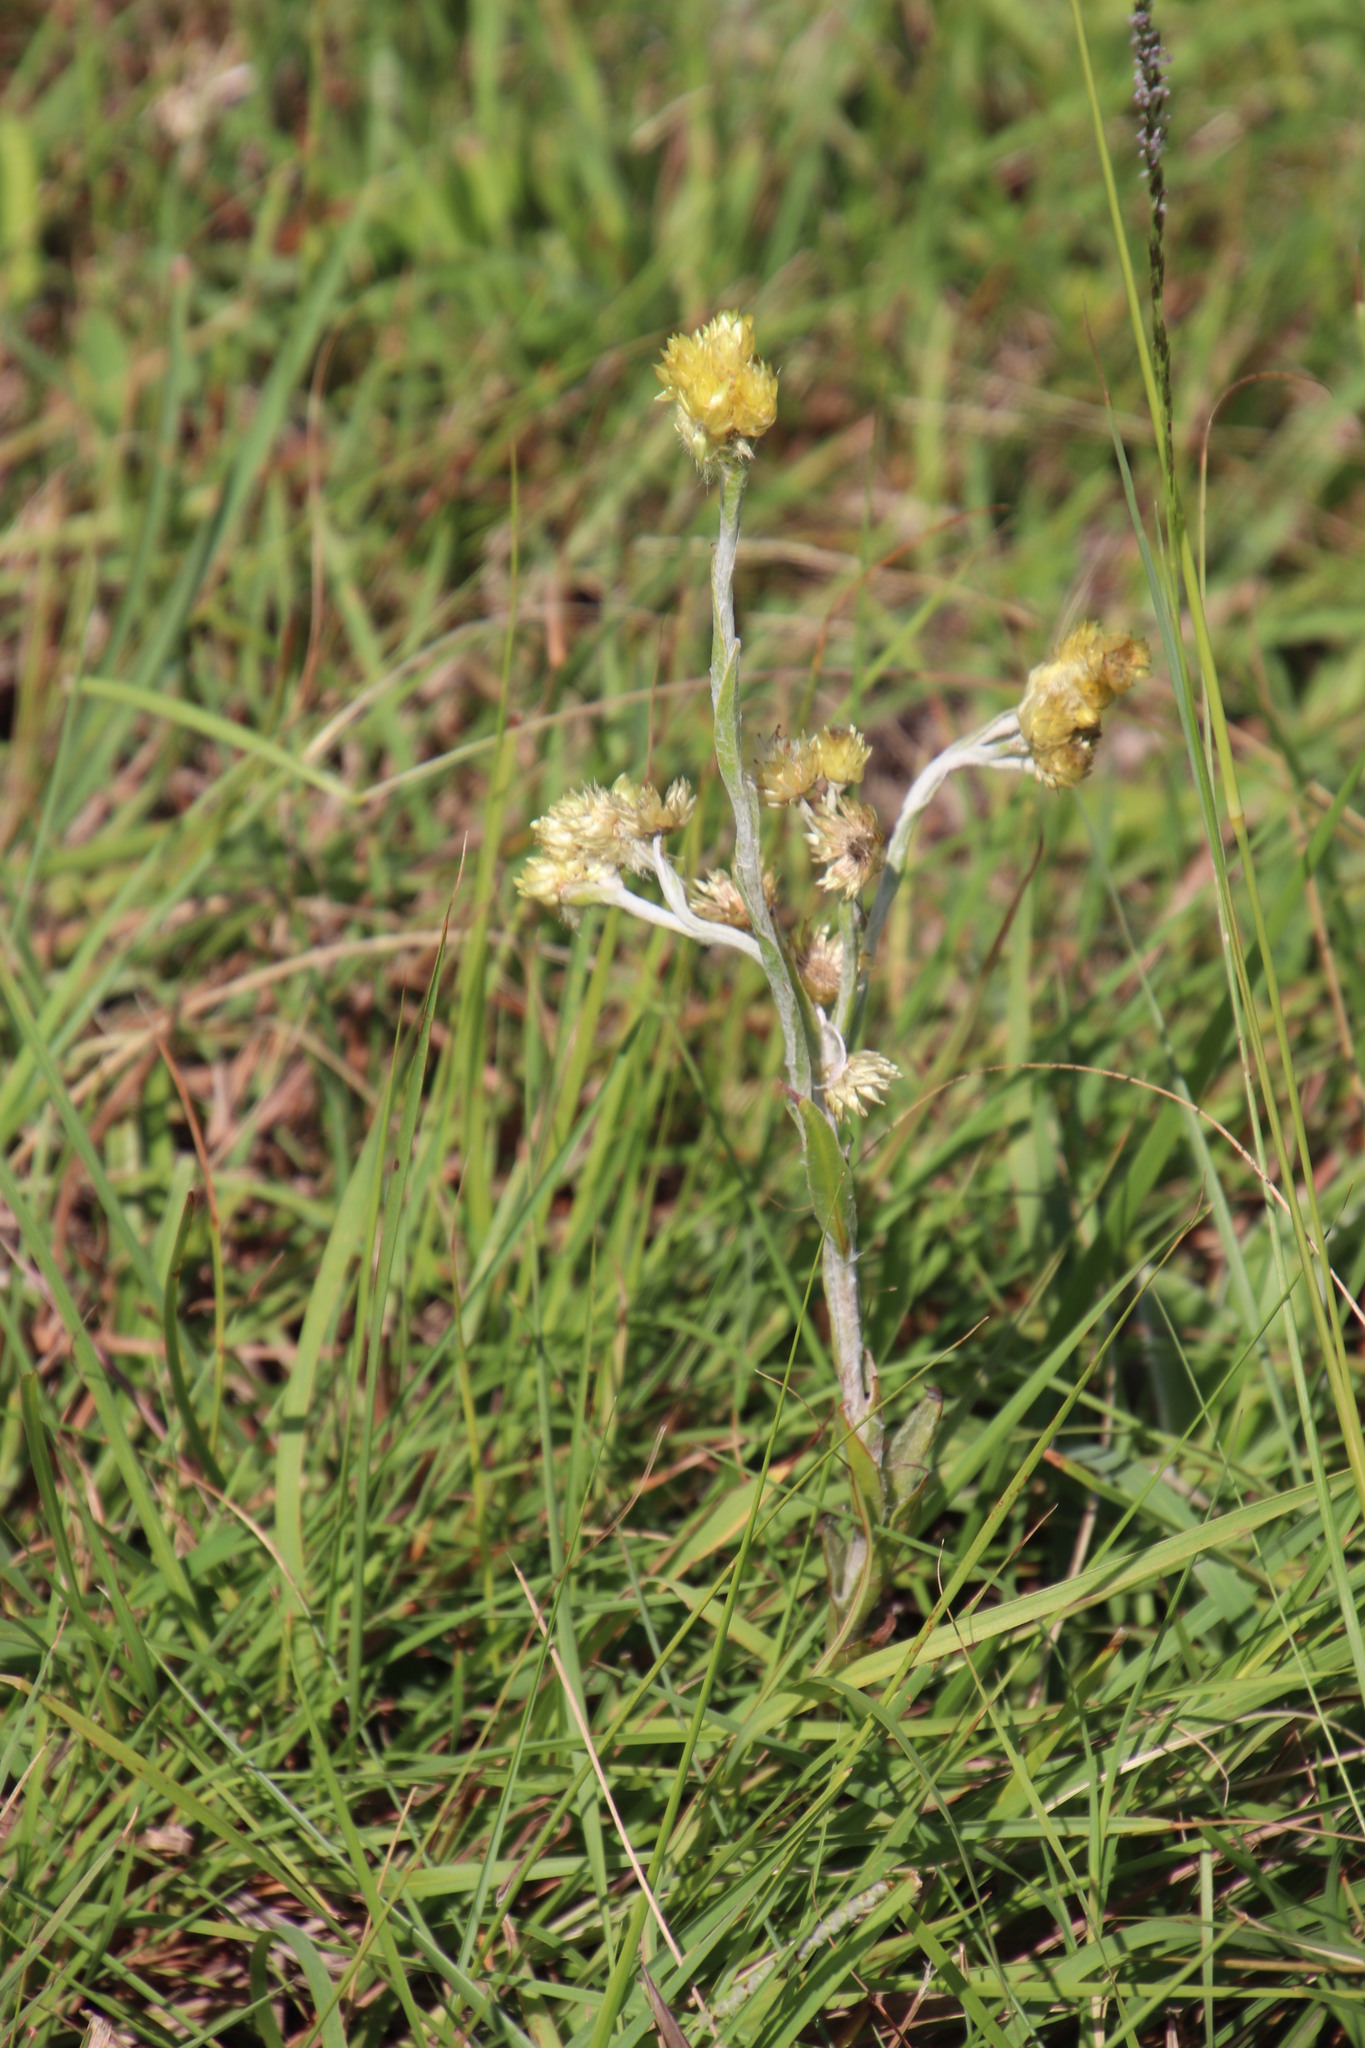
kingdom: Plantae
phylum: Tracheophyta
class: Magnoliopsida
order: Asterales
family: Asteraceae
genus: Helichrysum
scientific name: Helichrysum cymosum
